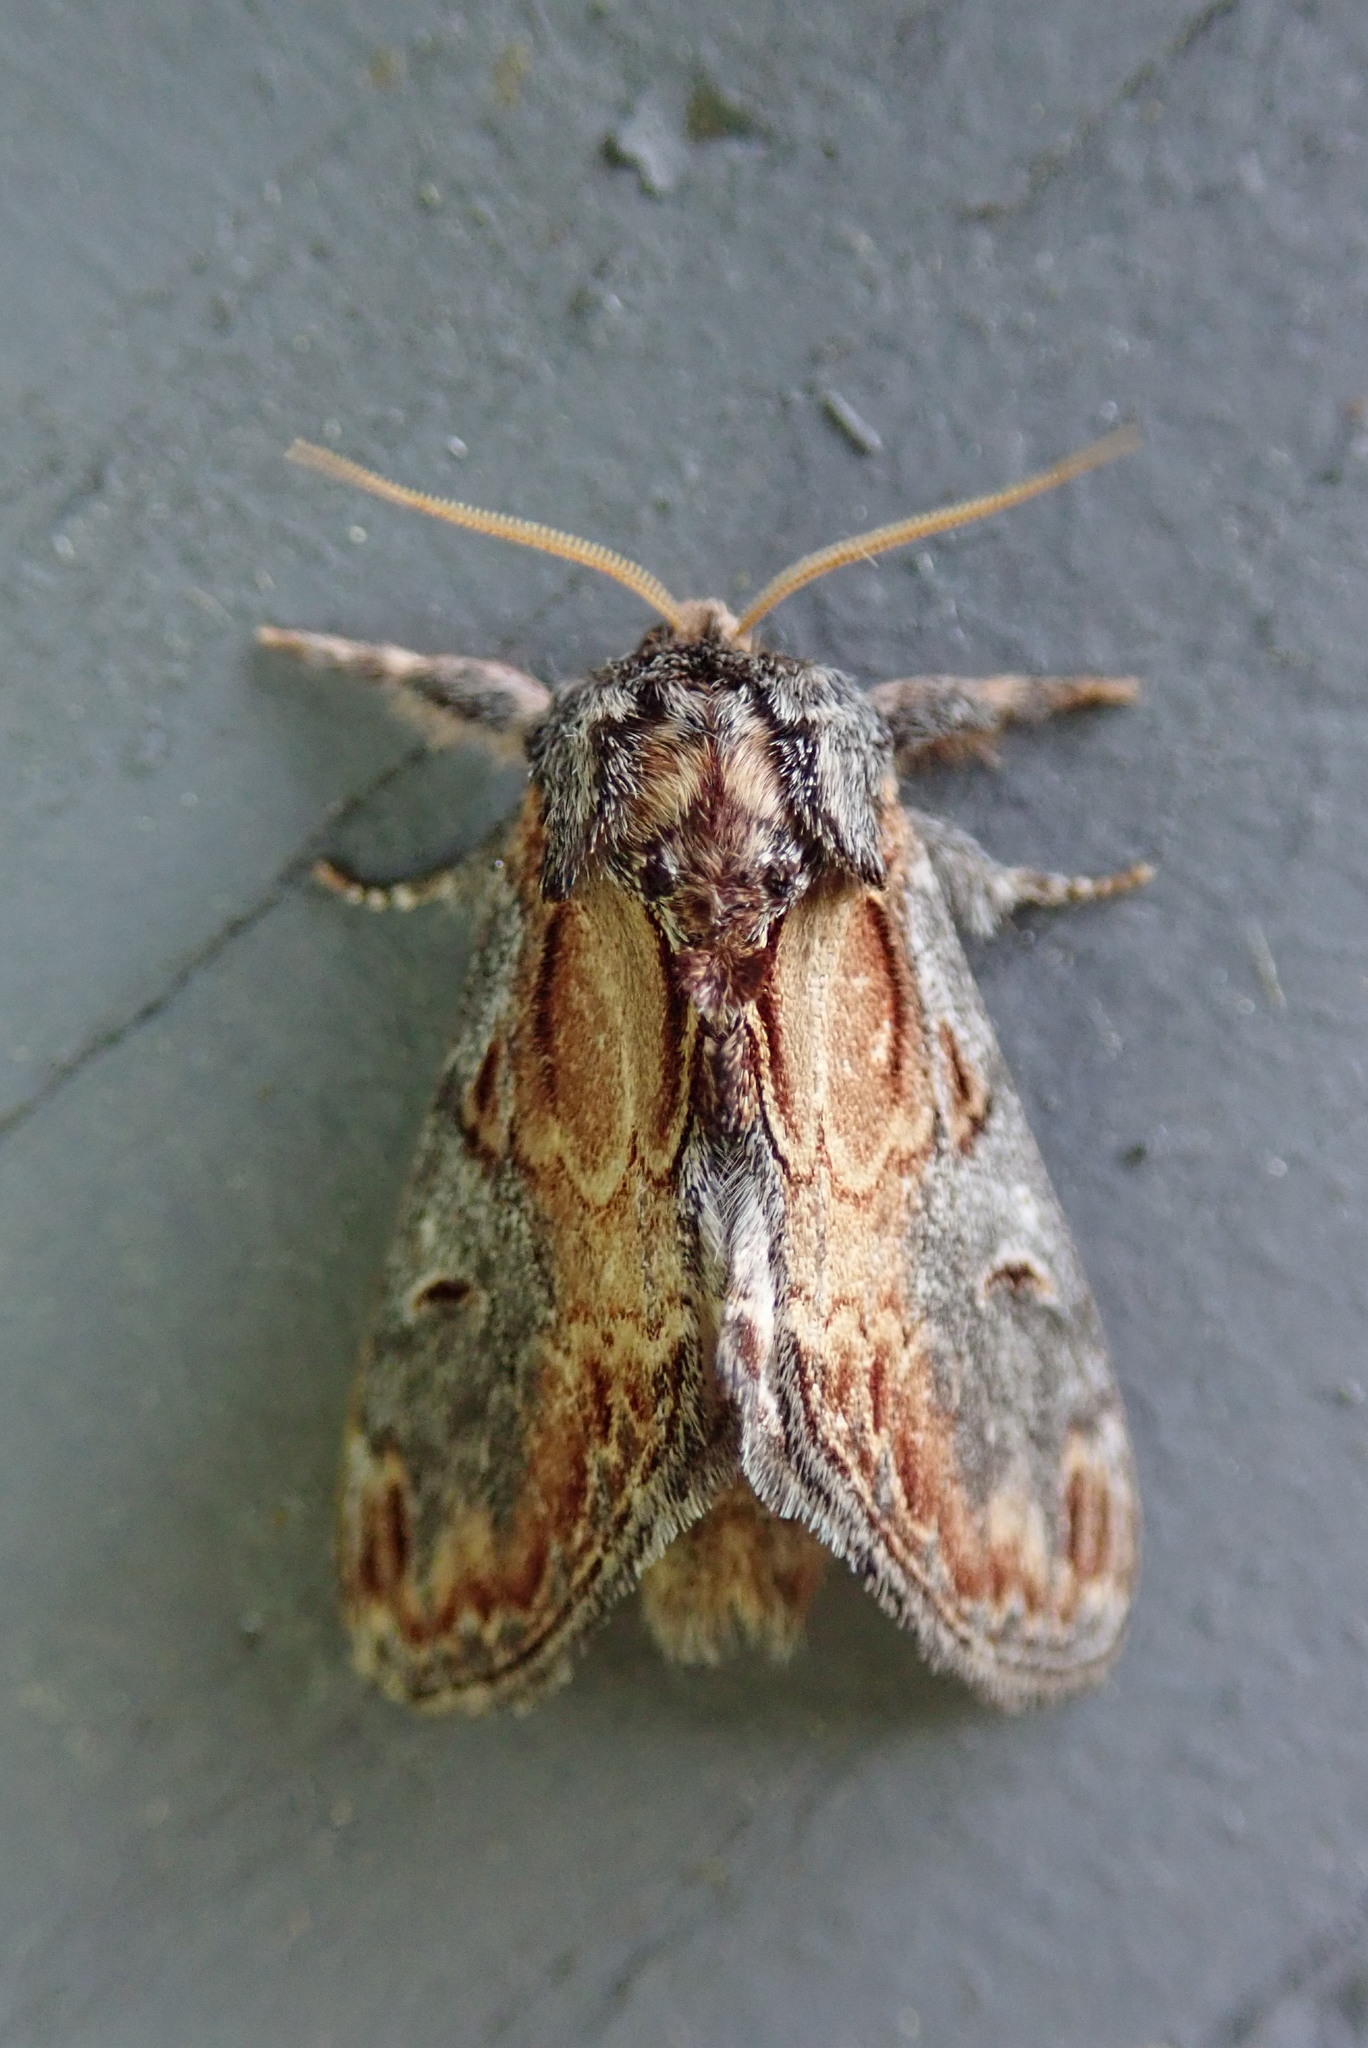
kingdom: Animalia
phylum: Arthropoda
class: Insecta
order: Lepidoptera
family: Notodontidae
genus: Notodonta
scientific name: Notodonta scitipennis
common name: Finned-willow prominent moth
